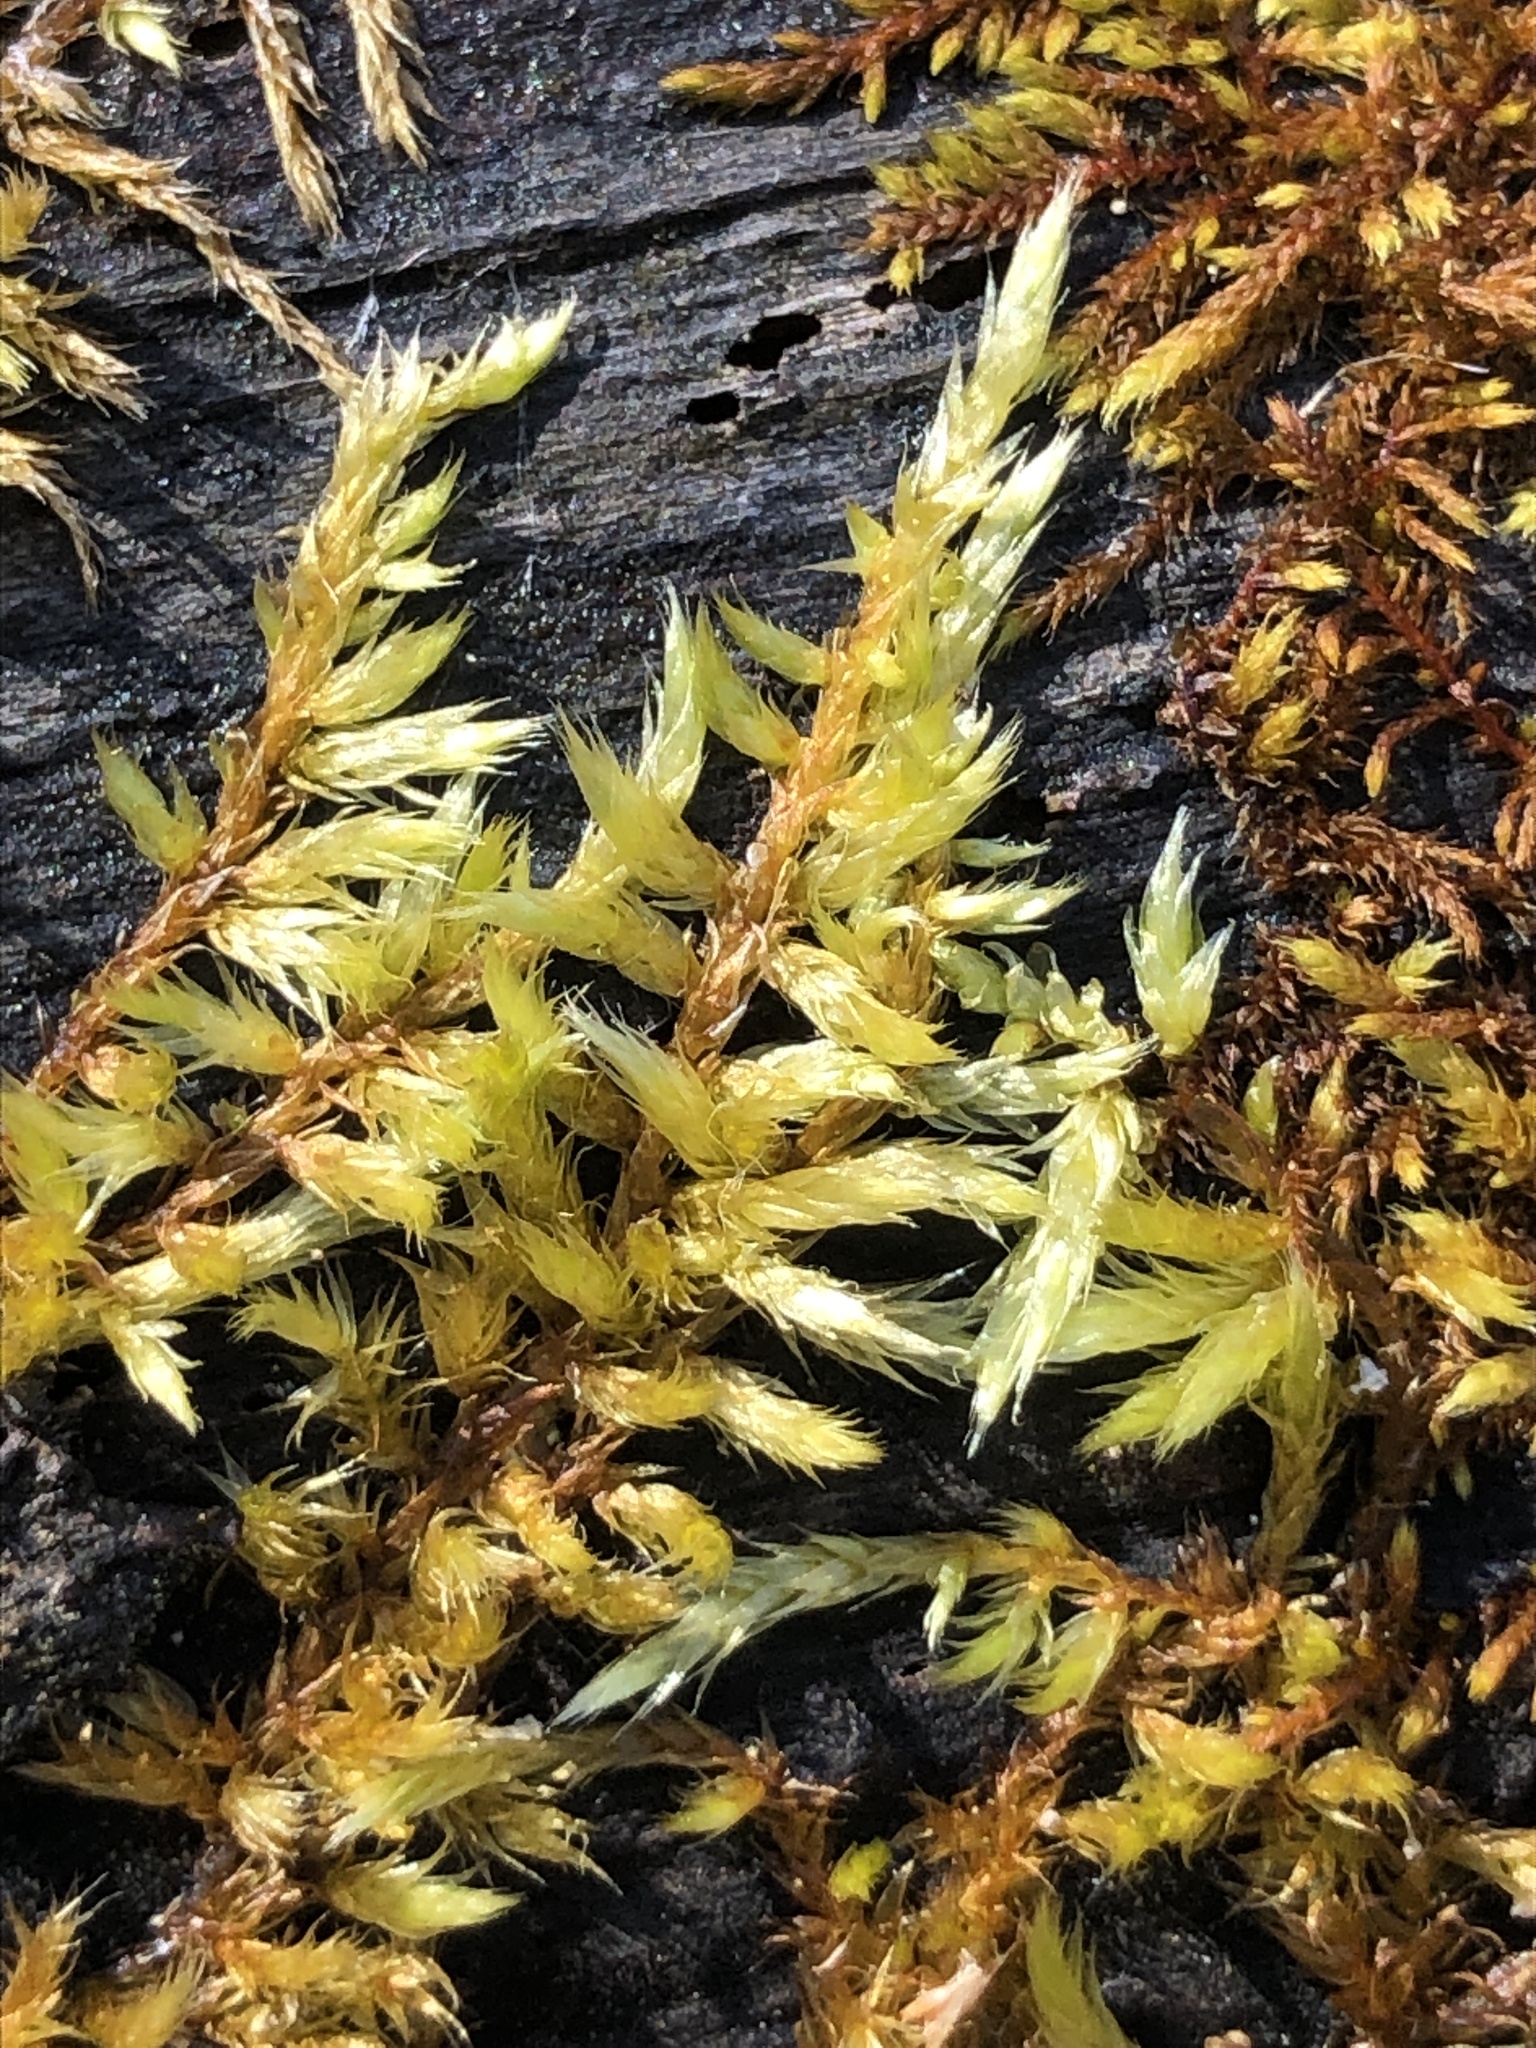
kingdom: Plantae
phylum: Bryophyta
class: Bryopsida
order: Hypnales
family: Callicladiaceae
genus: Callicladium
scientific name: Callicladium haldanianum
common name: Beautiful branch moss
